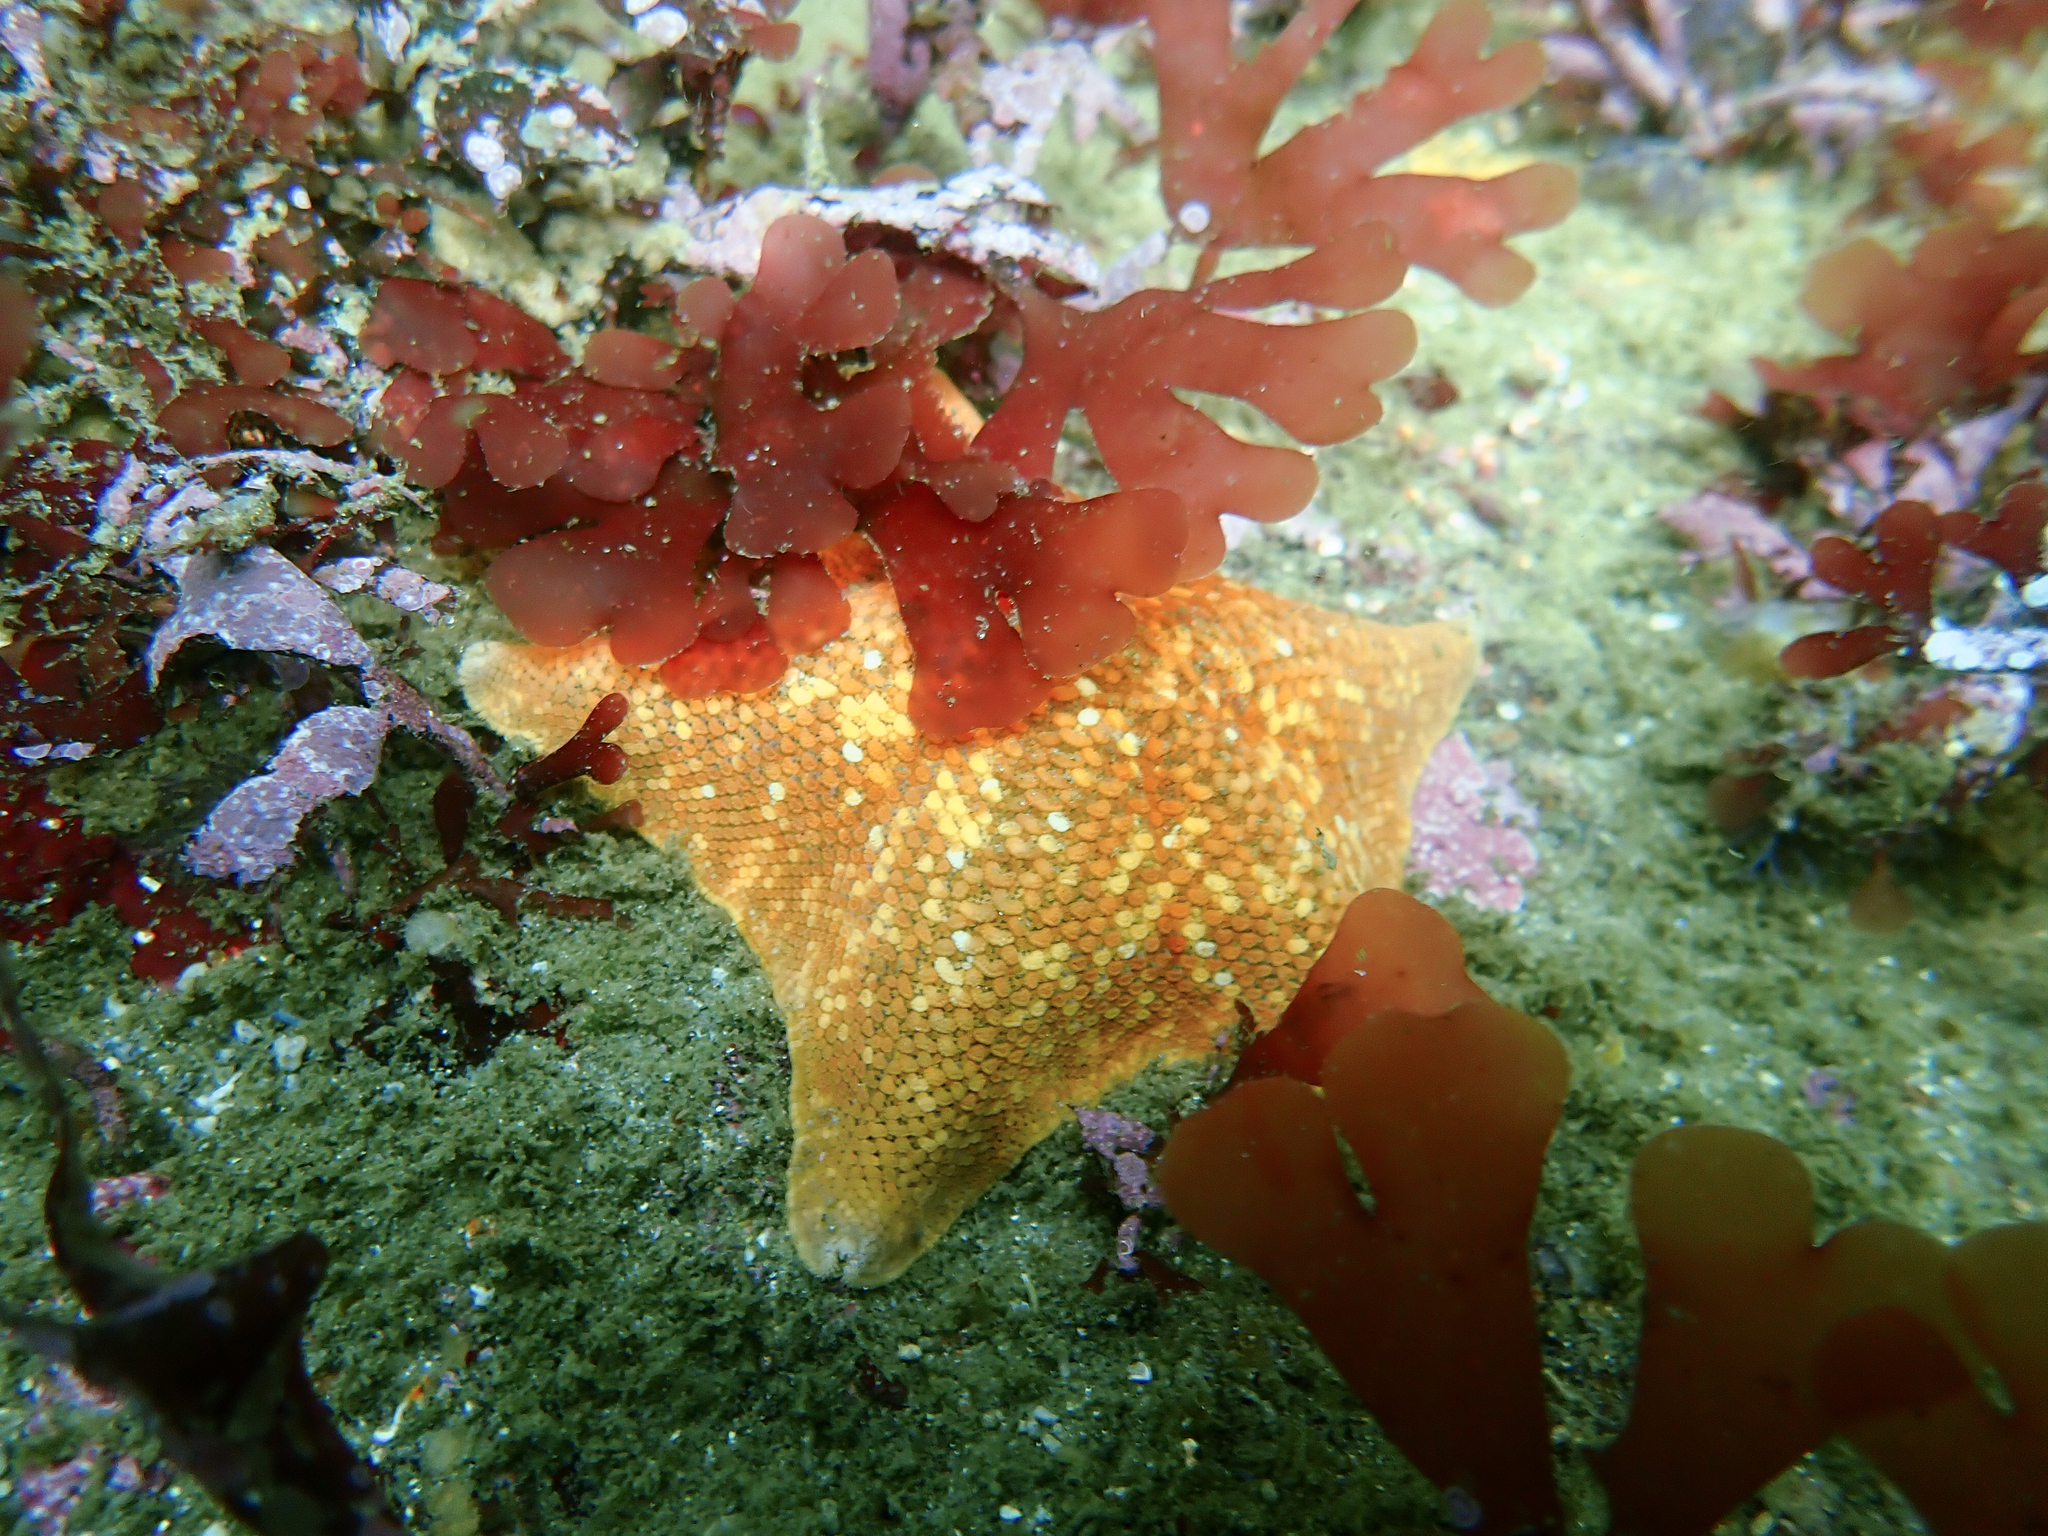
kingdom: Animalia
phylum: Echinodermata
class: Asteroidea
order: Valvatida
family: Asterinidae
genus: Patiria
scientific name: Patiria miniata
